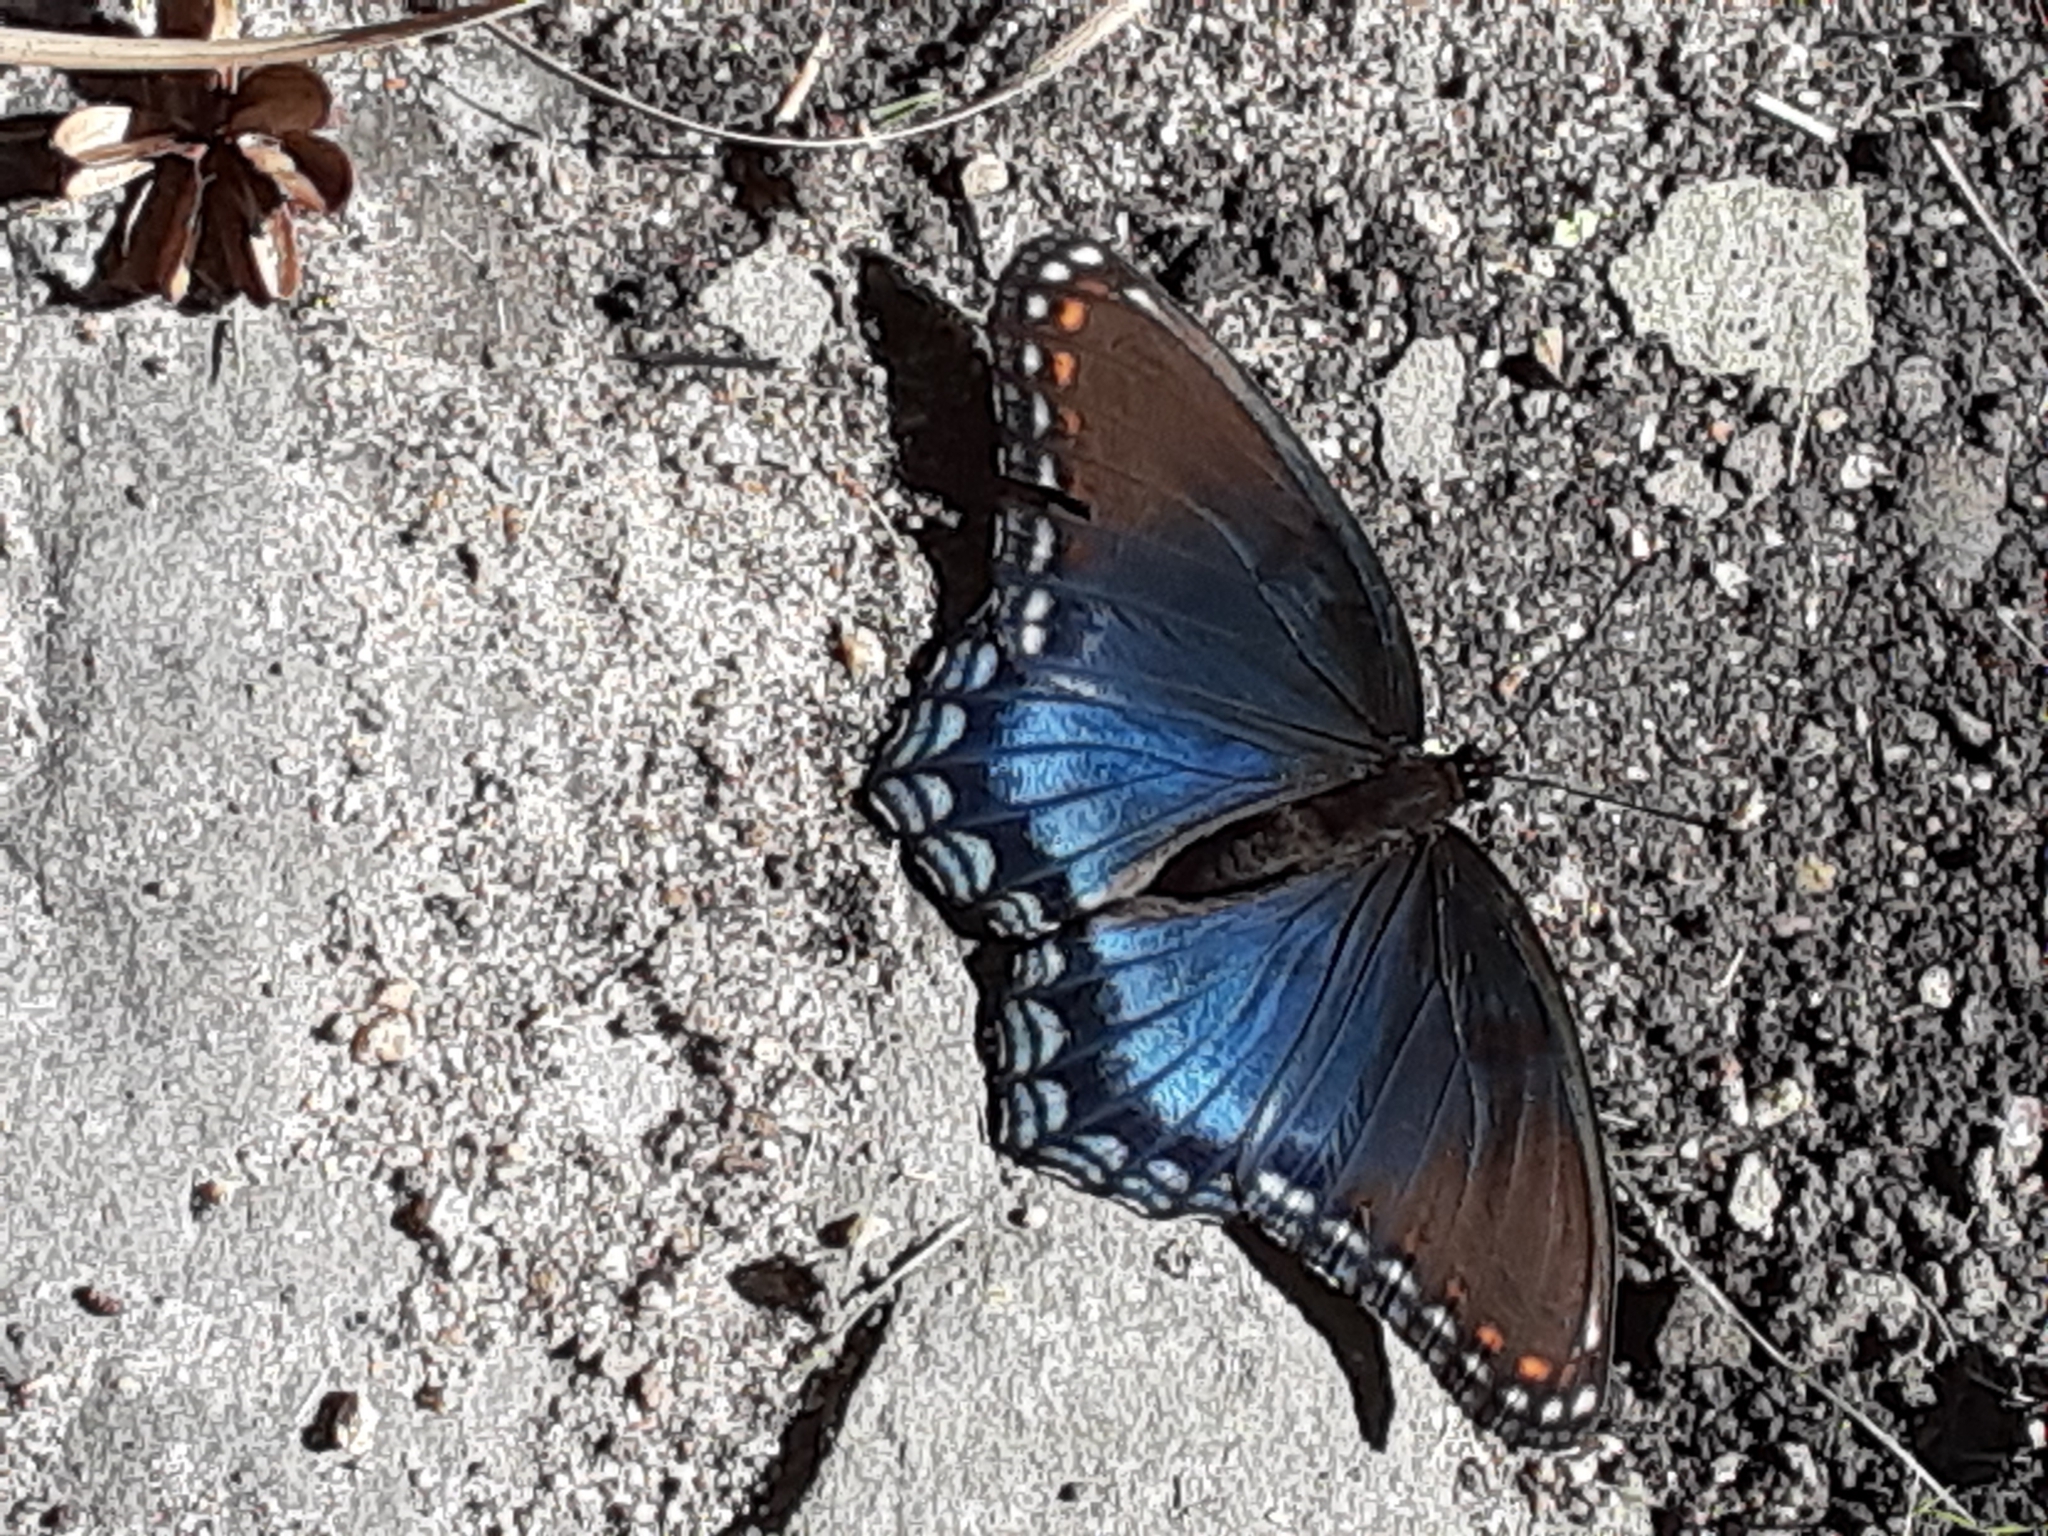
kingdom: Animalia
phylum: Arthropoda
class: Insecta
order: Lepidoptera
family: Nymphalidae
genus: Limenitis
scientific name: Limenitis astyanax
